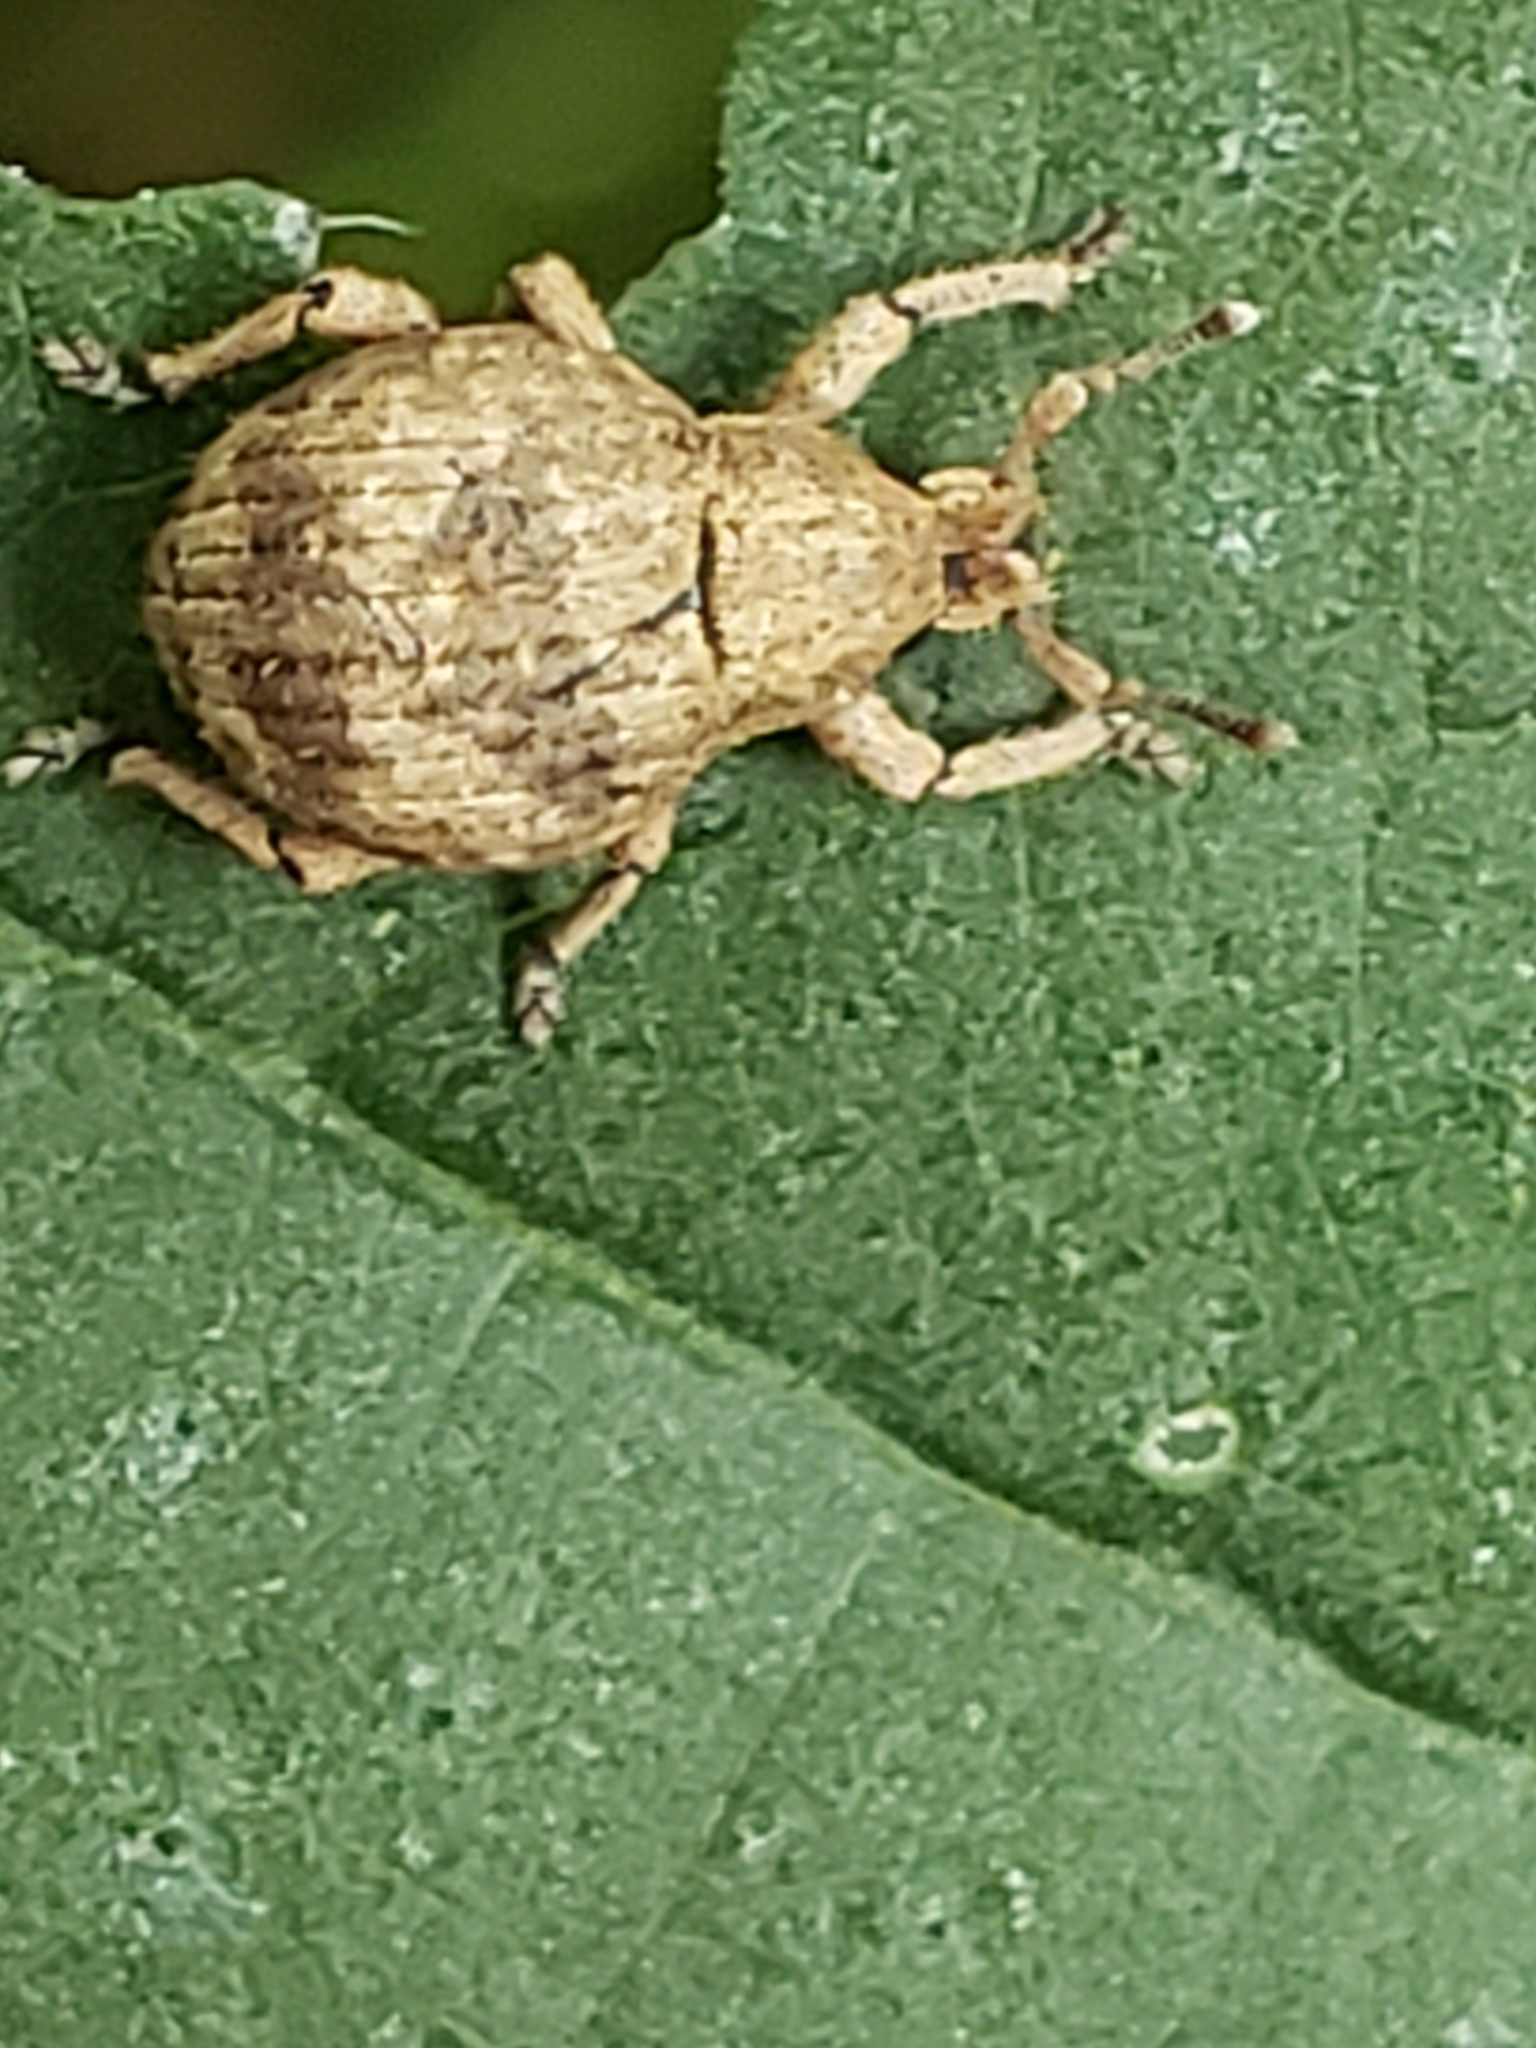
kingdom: Animalia
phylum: Arthropoda
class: Insecta
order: Coleoptera
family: Curculionidae
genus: Pseudocneorhinus
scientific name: Pseudocneorhinus bifasciatus
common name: Two-banded japanese weevil
